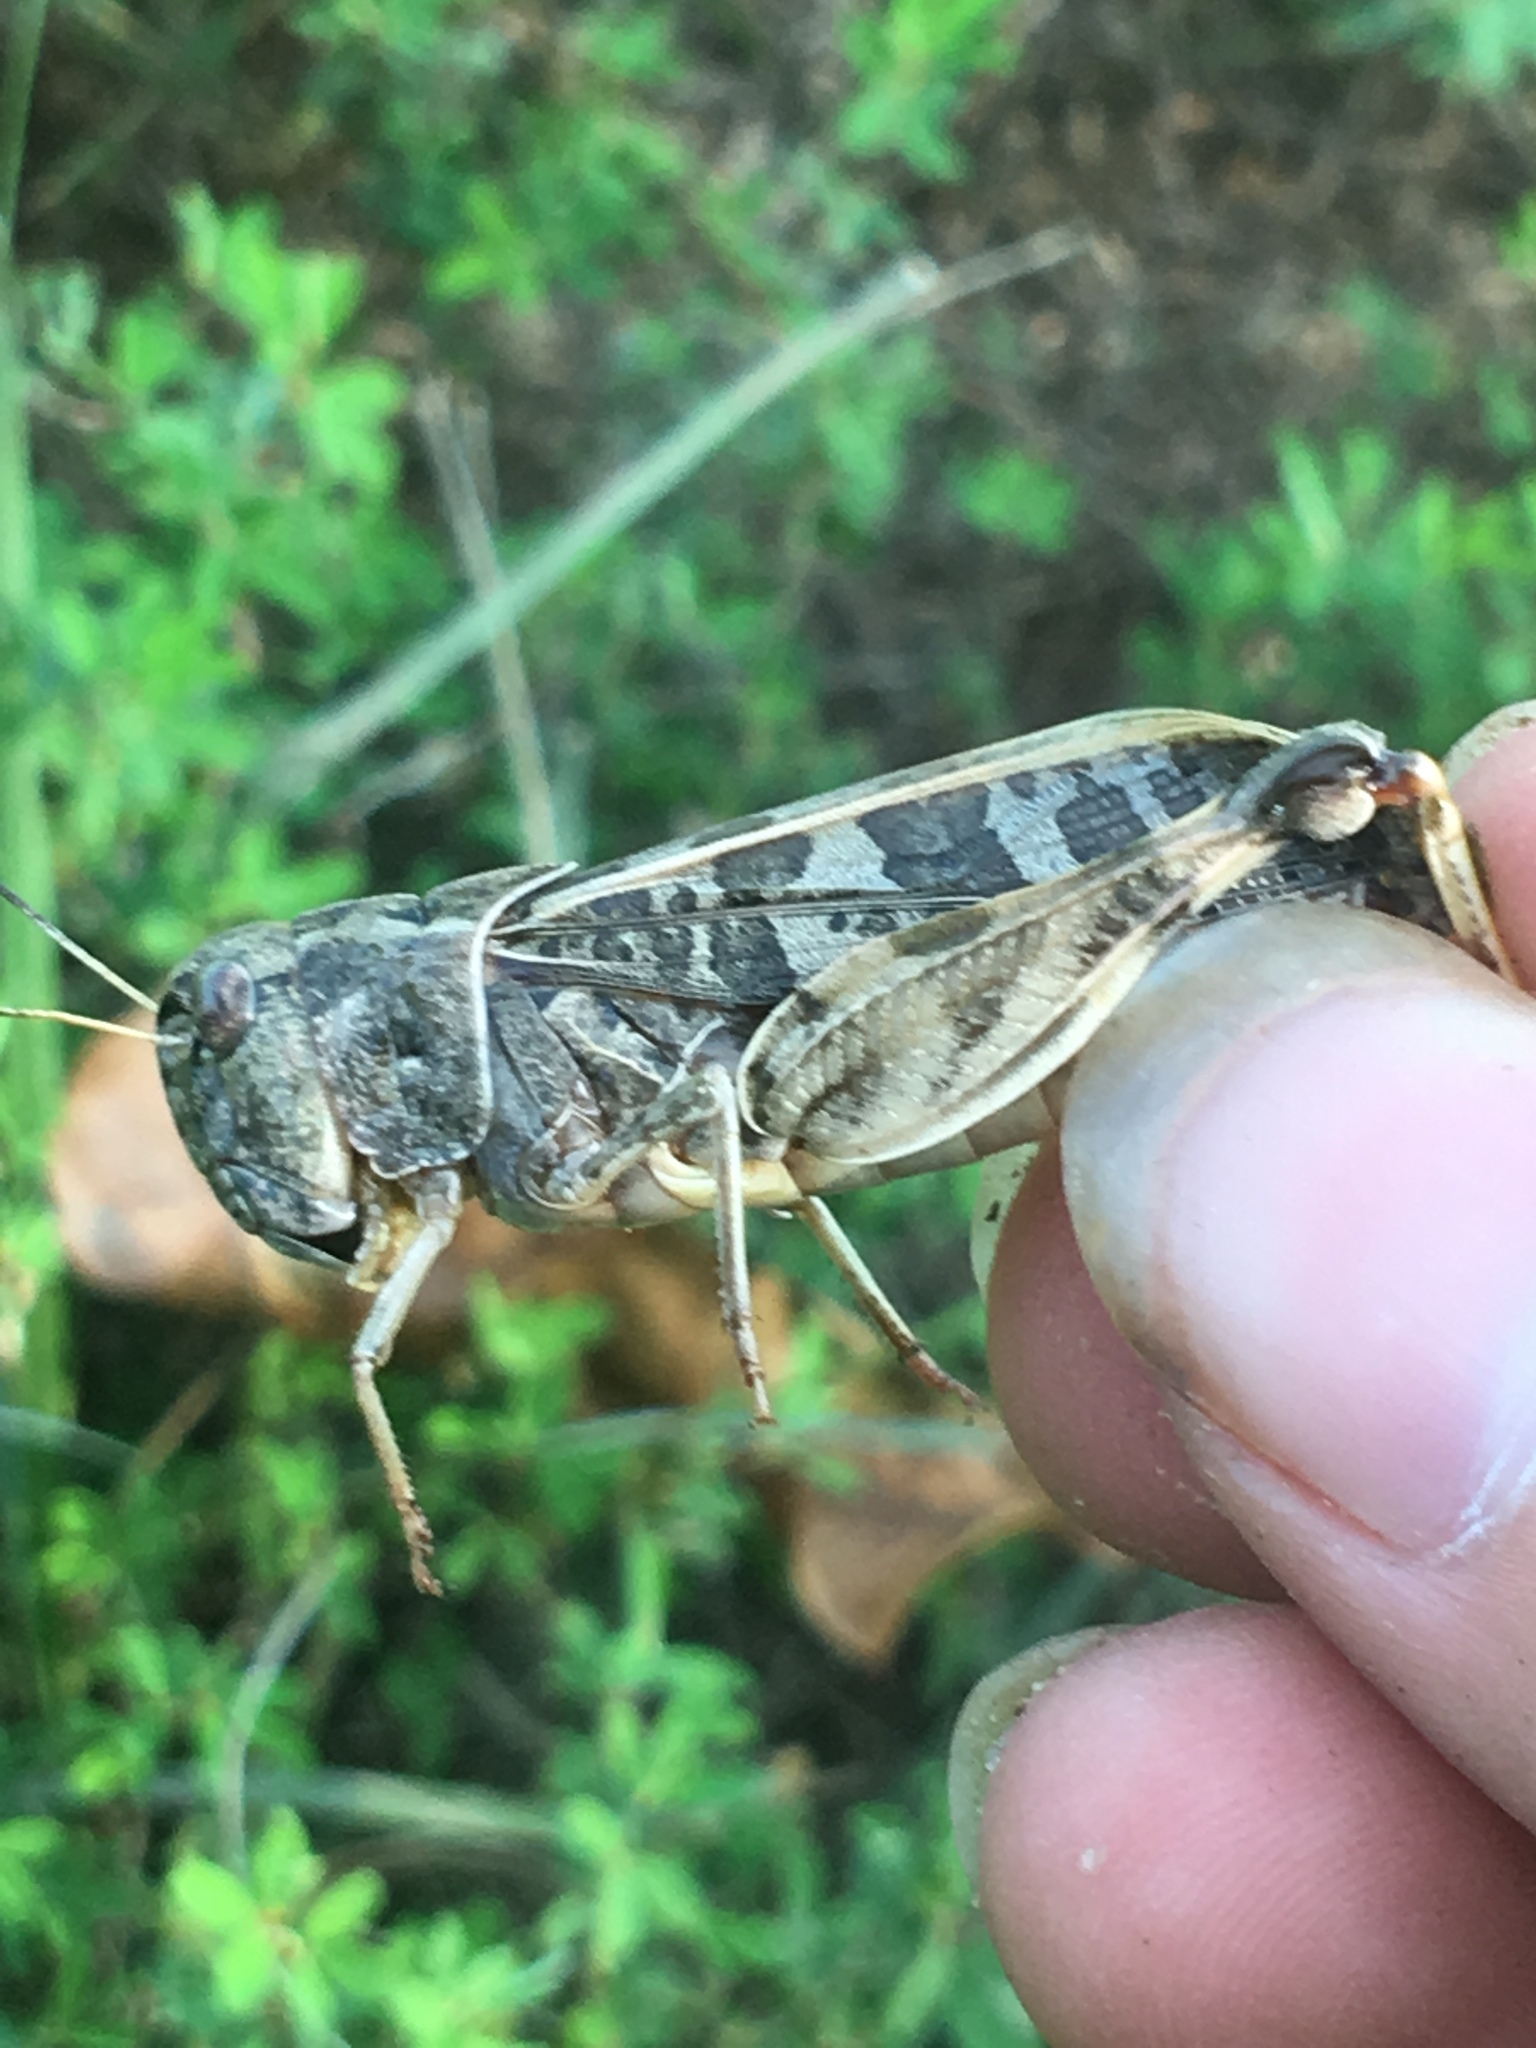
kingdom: Animalia
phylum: Arthropoda
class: Insecta
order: Orthoptera
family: Acrididae
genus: Hippiscus
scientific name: Hippiscus ocelote
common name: Wrinkled grasshopper
